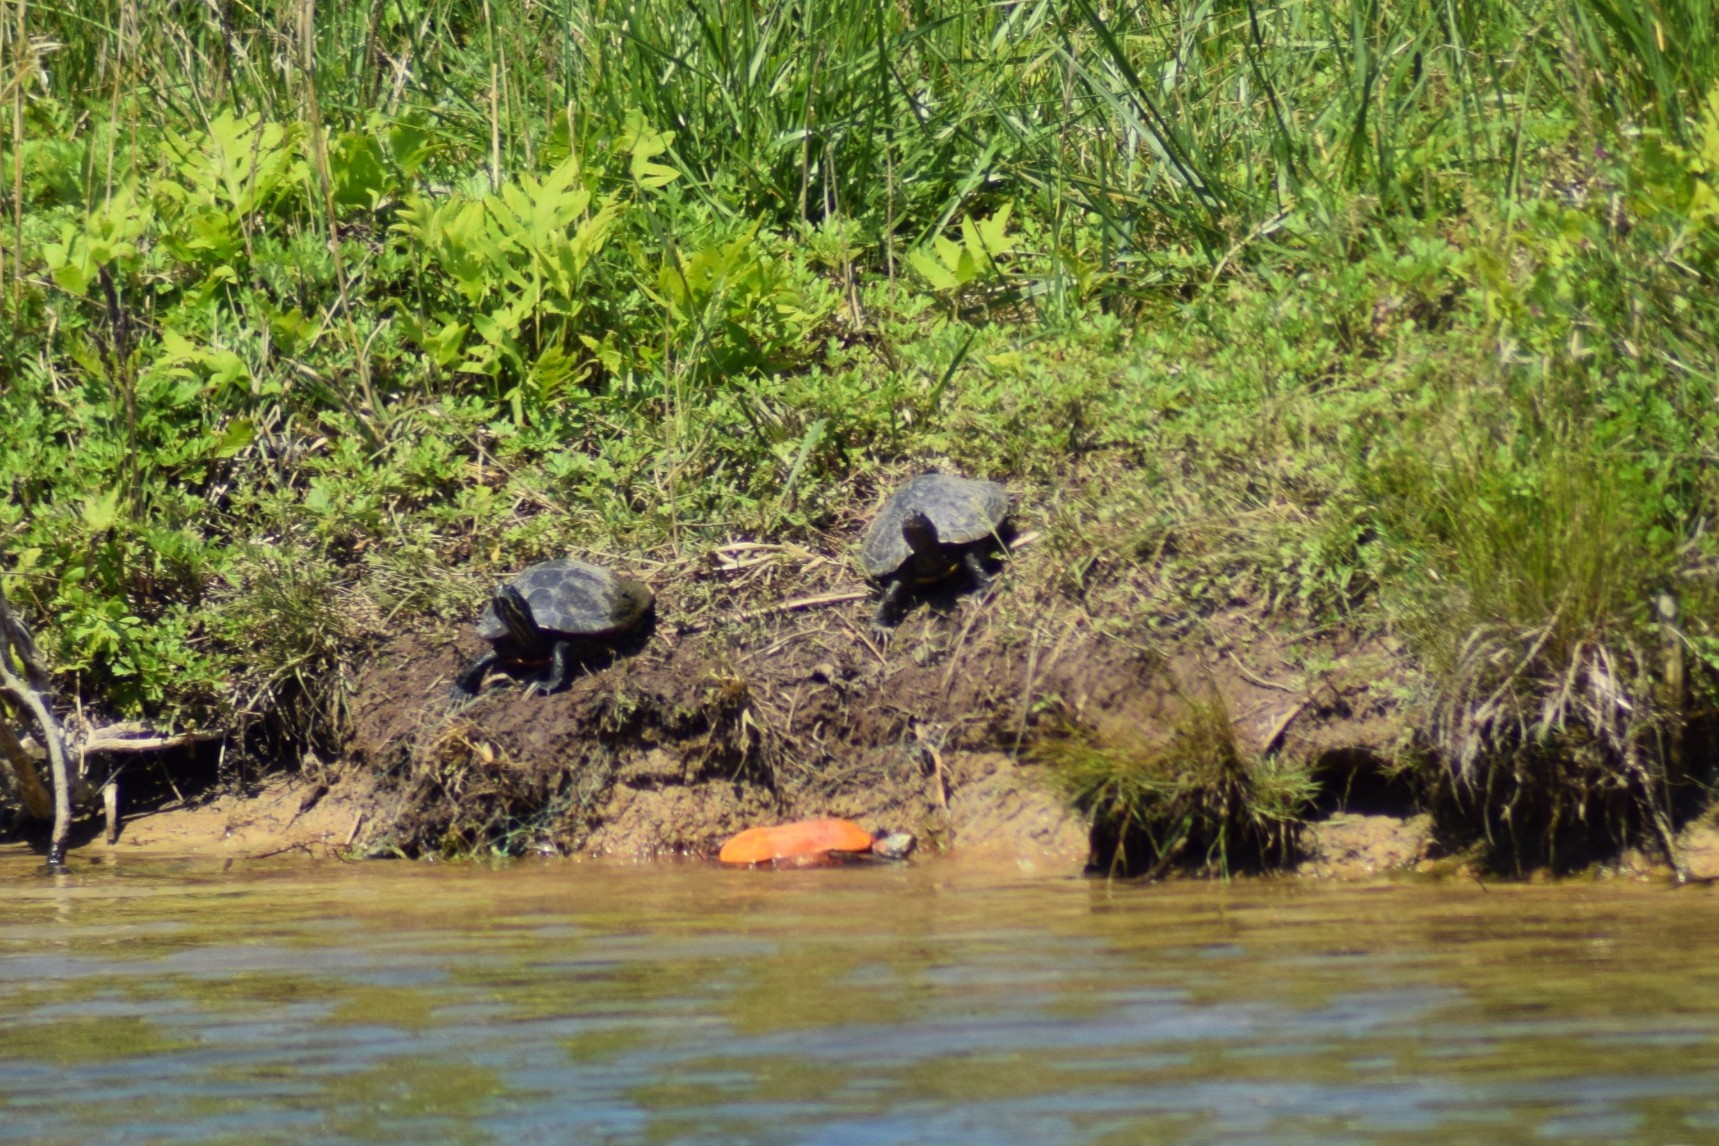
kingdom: Animalia
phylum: Chordata
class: Testudines
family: Emydidae
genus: Pseudemys
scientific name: Pseudemys rubriventris
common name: American red-bellied turtle
